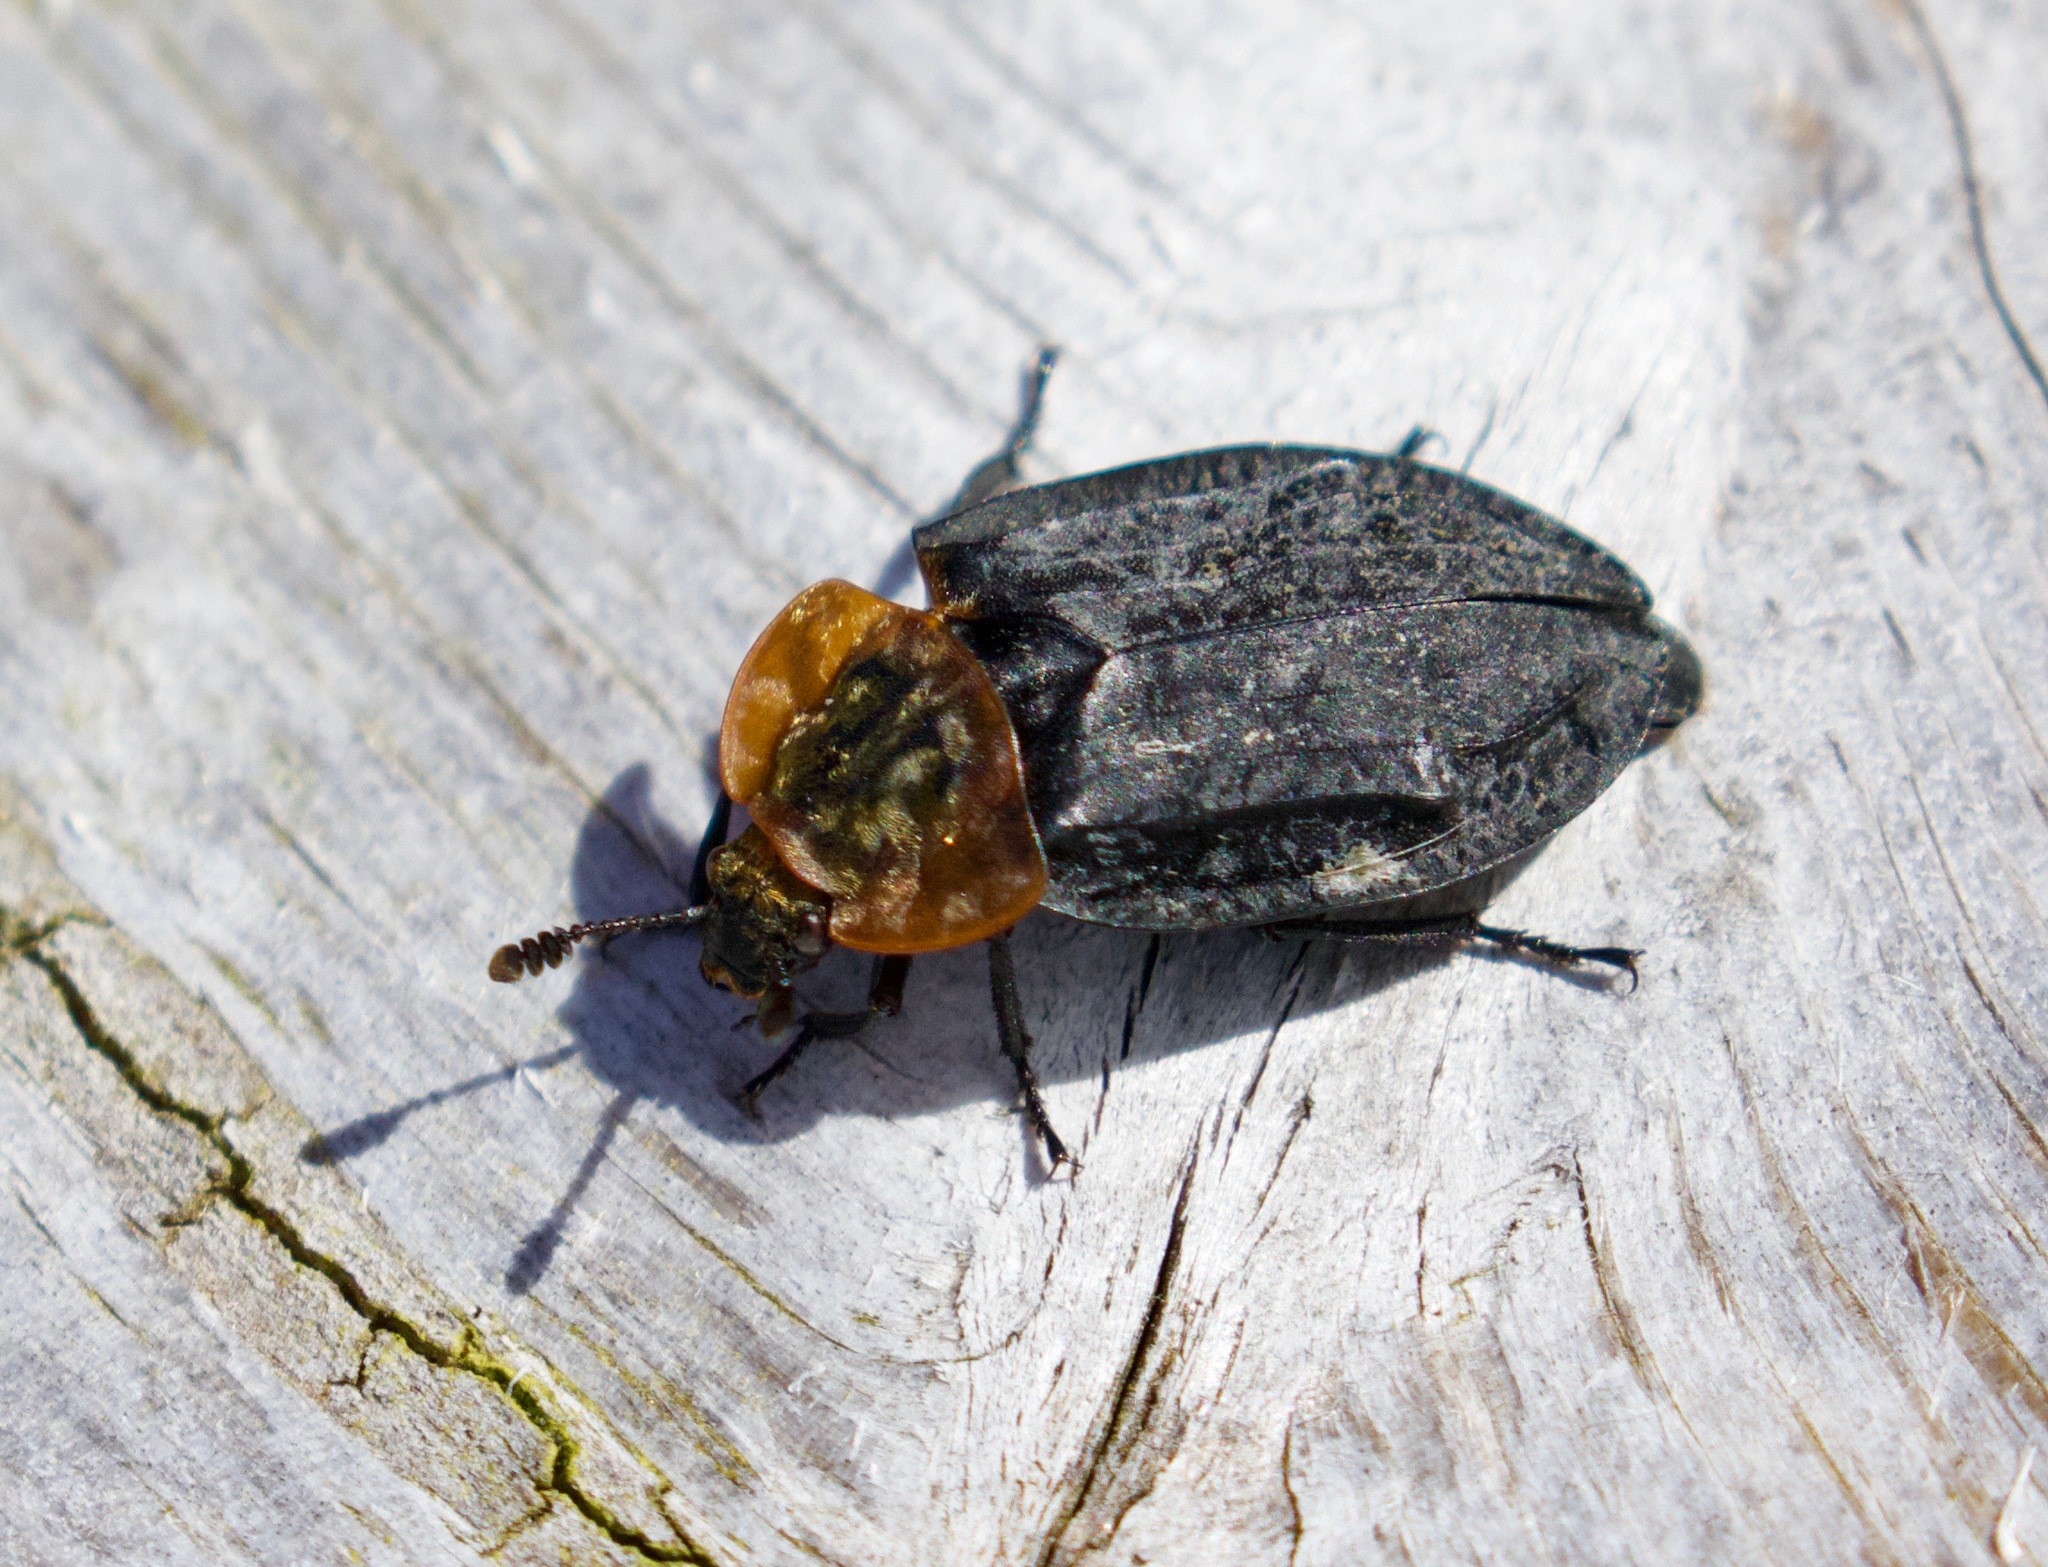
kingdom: Animalia
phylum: Arthropoda
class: Insecta
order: Coleoptera
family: Staphylinidae
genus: Oiceoptoma
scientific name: Oiceoptoma thoracicum
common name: Red-breasted carrion beetle
